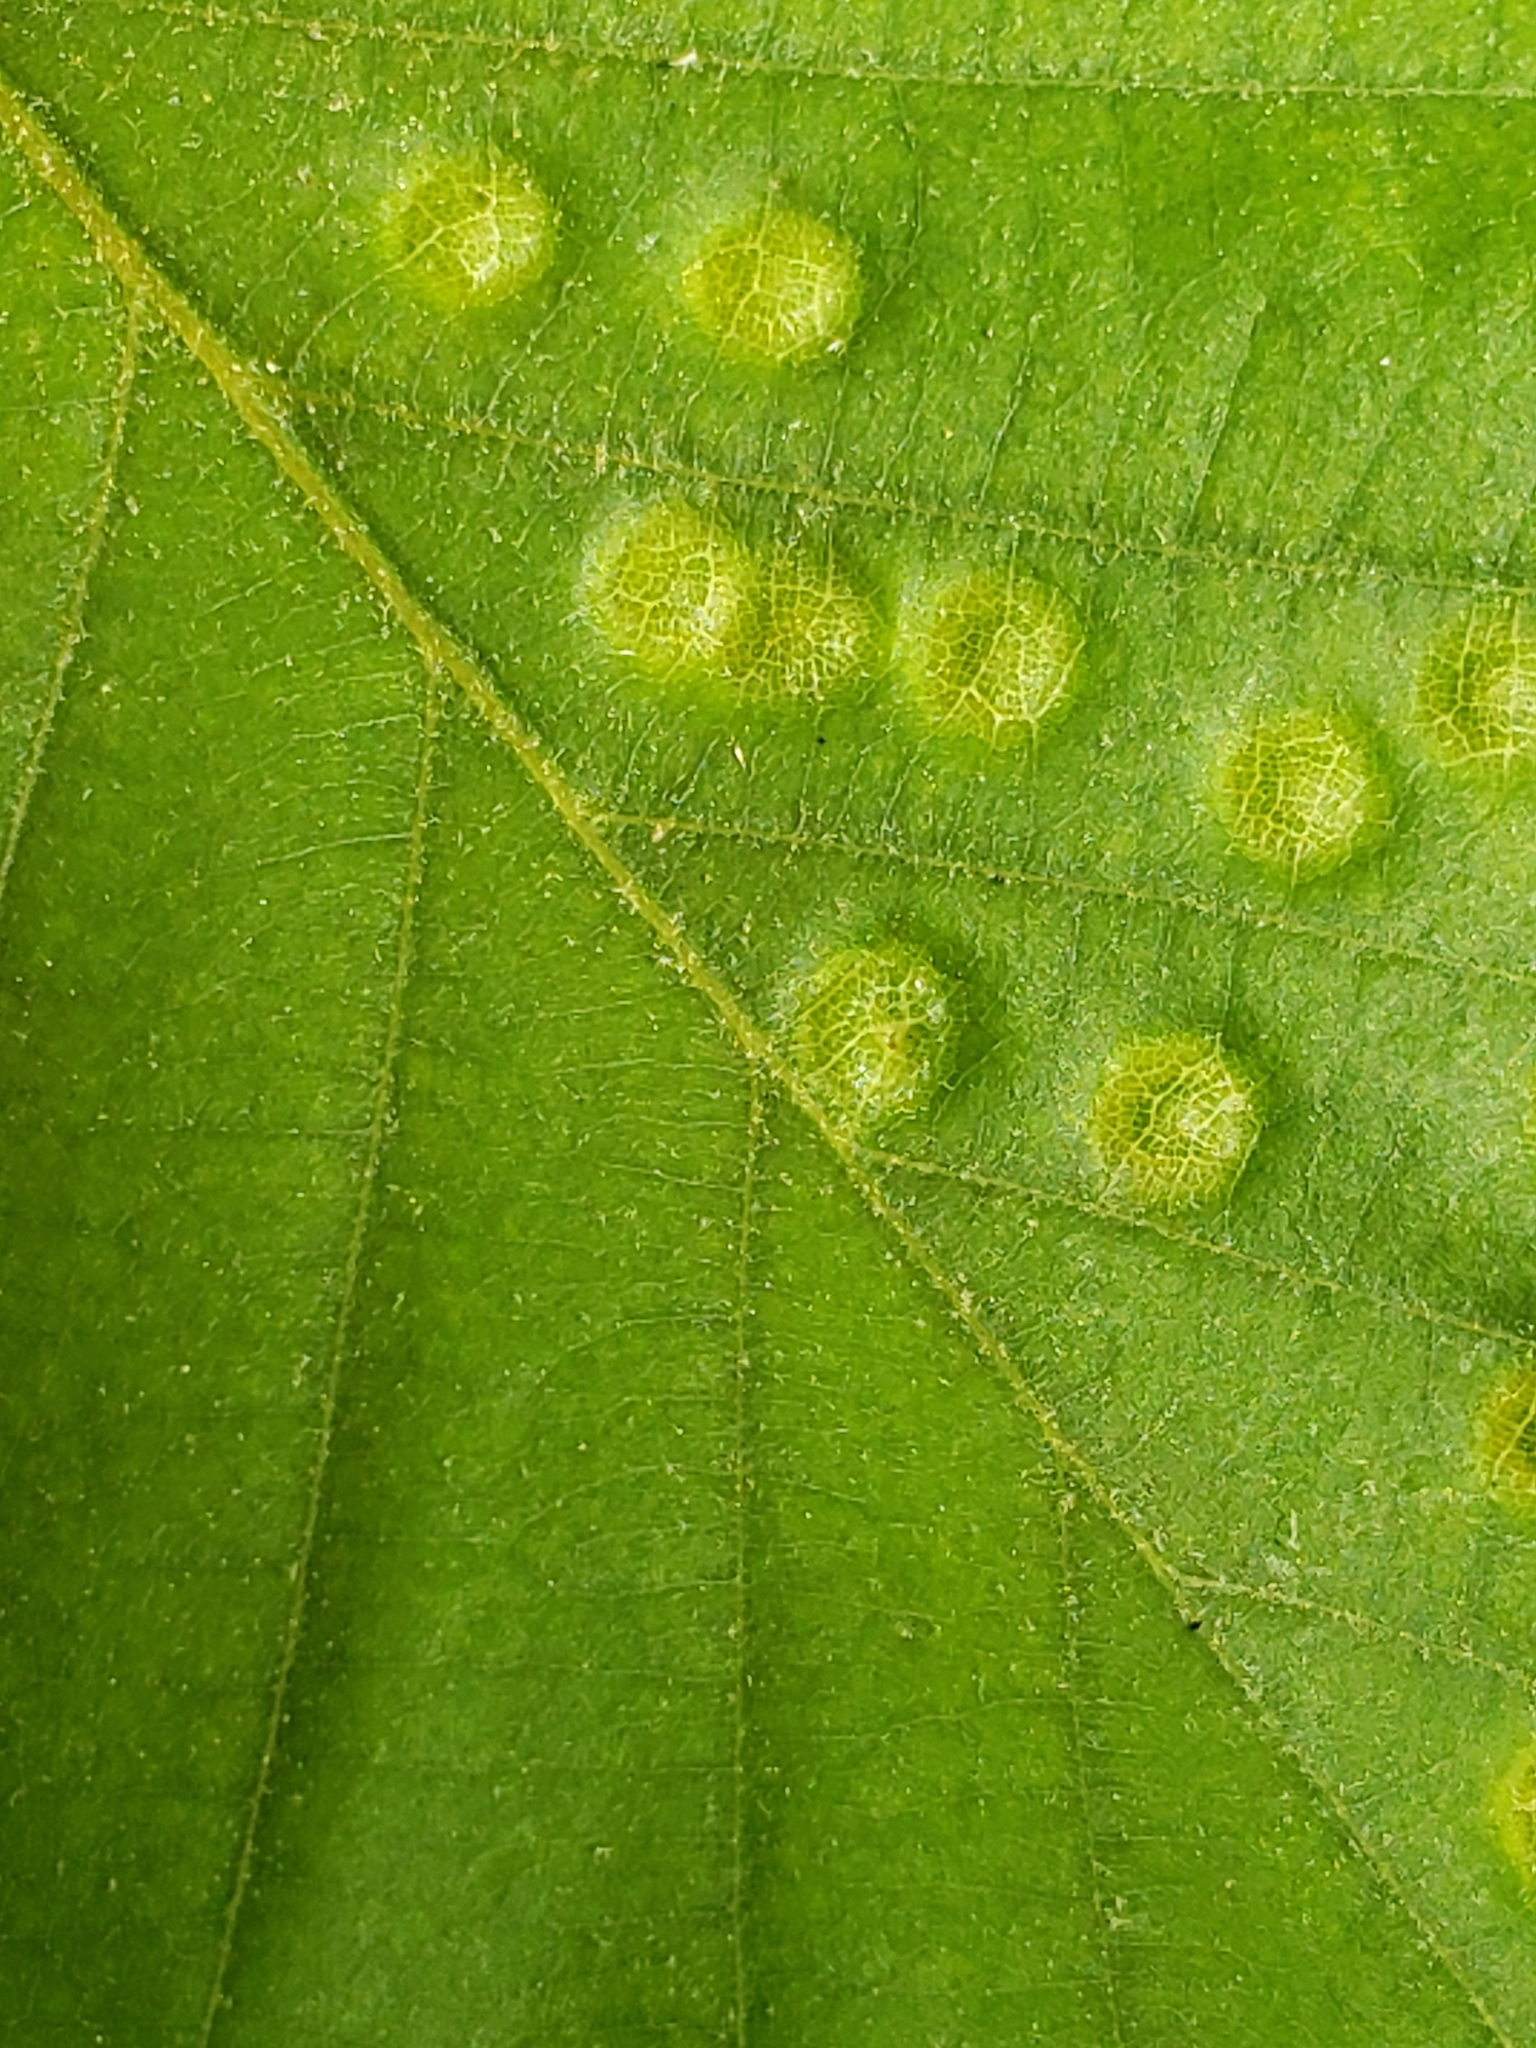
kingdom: Animalia
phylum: Arthropoda
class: Insecta
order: Hymenoptera
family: Cynipidae
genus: Callirhytis
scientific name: Callirhytis
